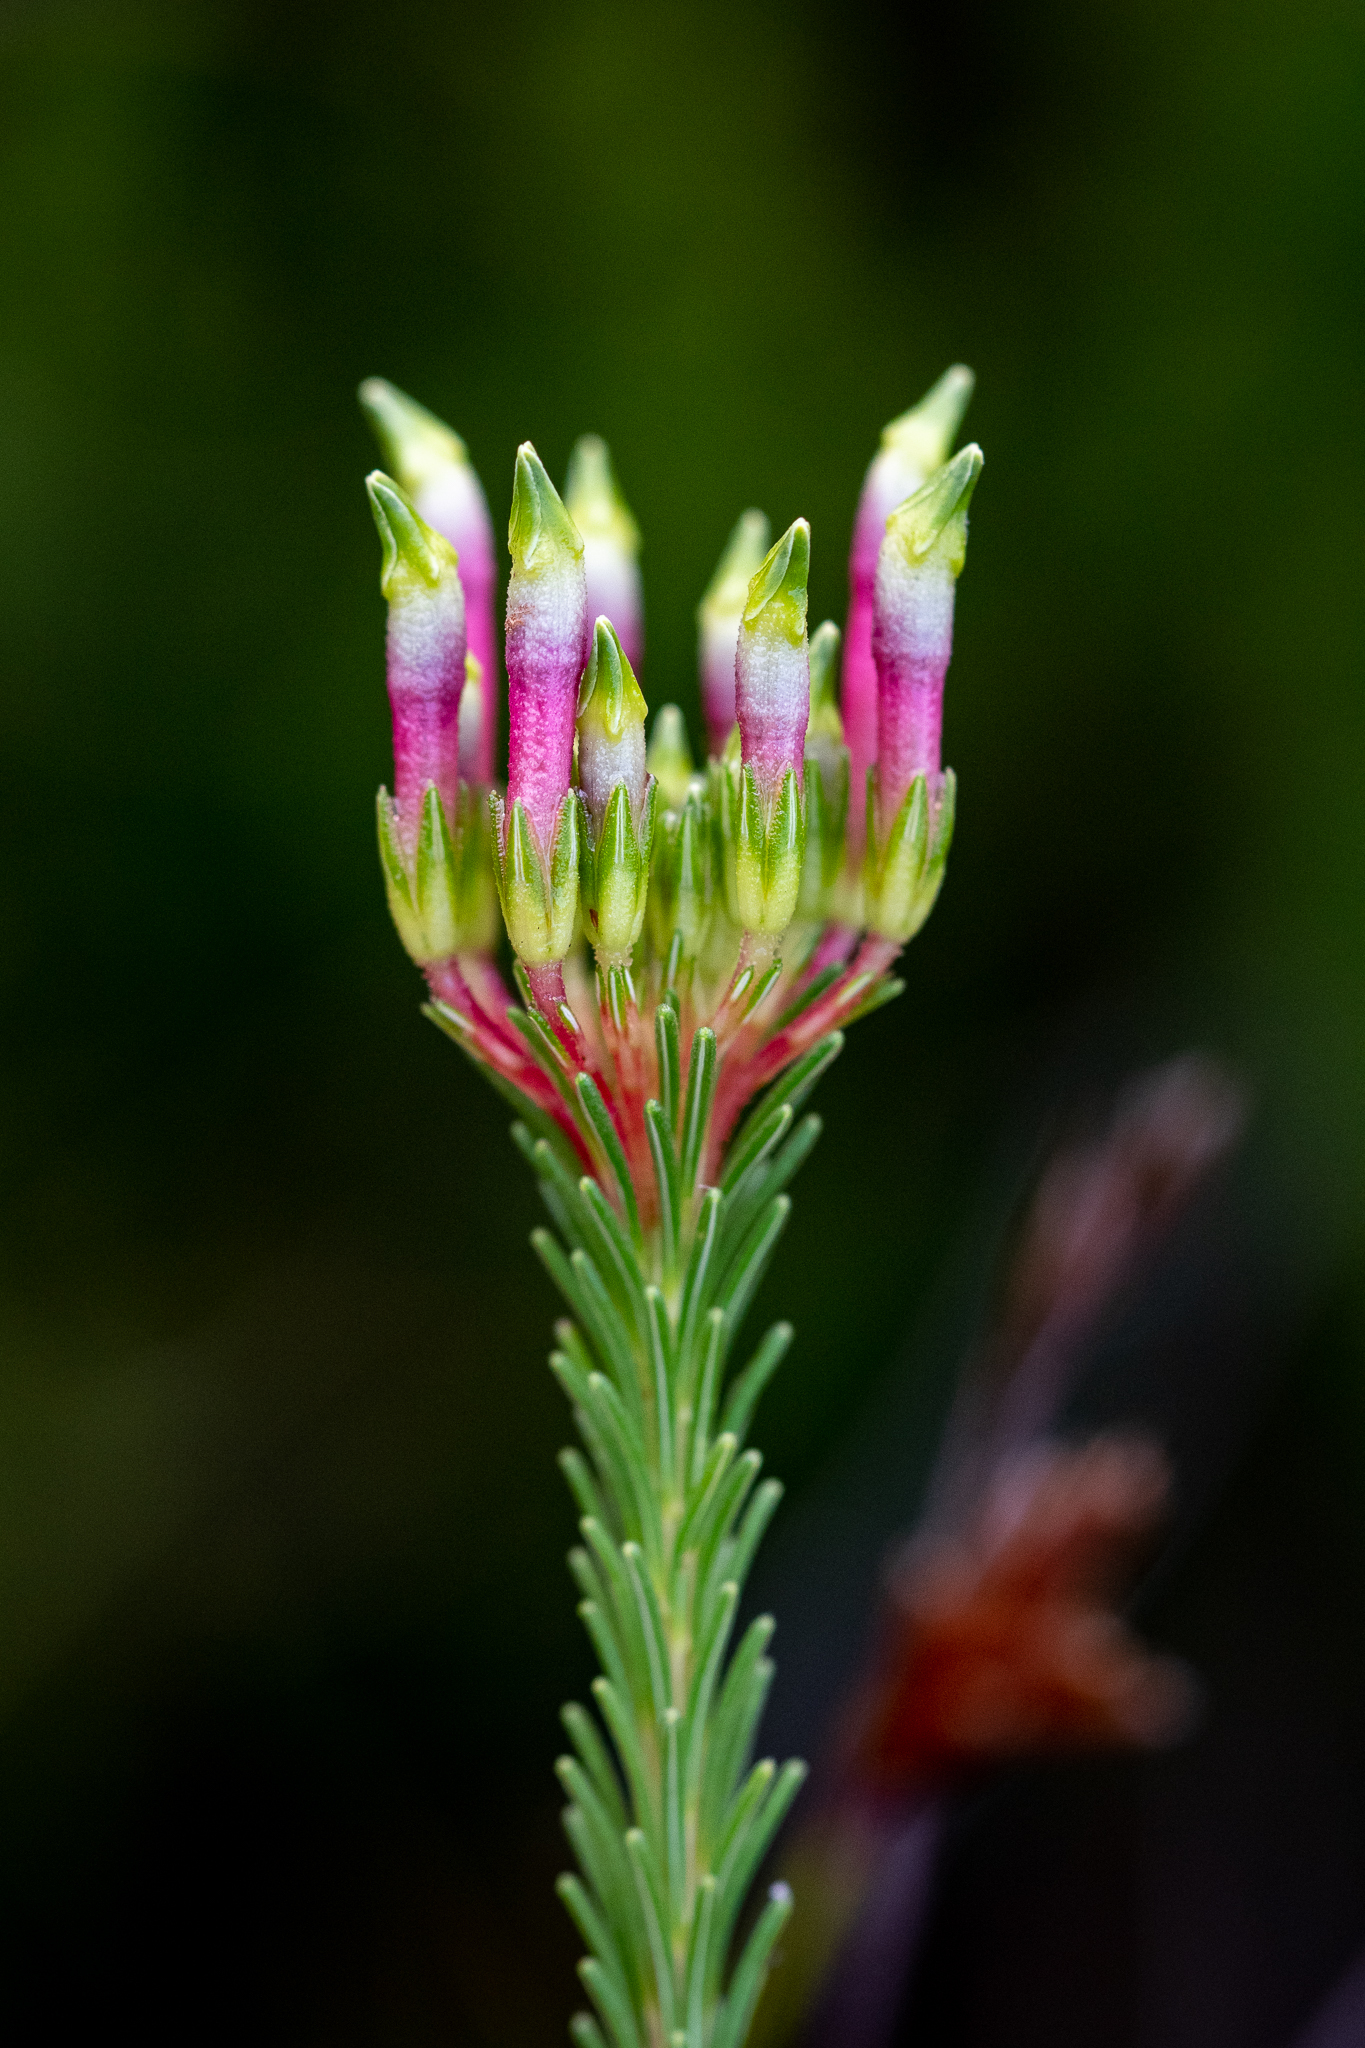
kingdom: Plantae
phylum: Tracheophyta
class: Magnoliopsida
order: Ericales
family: Ericaceae
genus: Erica
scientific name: Erica fascicularis
